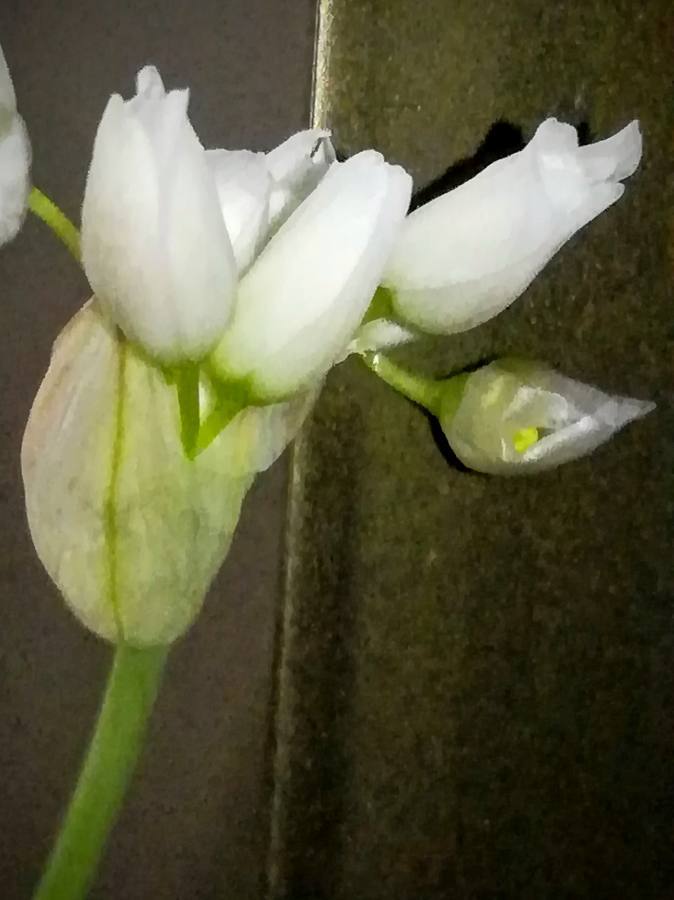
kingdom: Plantae
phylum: Tracheophyta
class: Liliopsida
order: Asparagales
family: Amaryllidaceae
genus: Allium
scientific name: Allium roseum
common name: Rosy garlic
